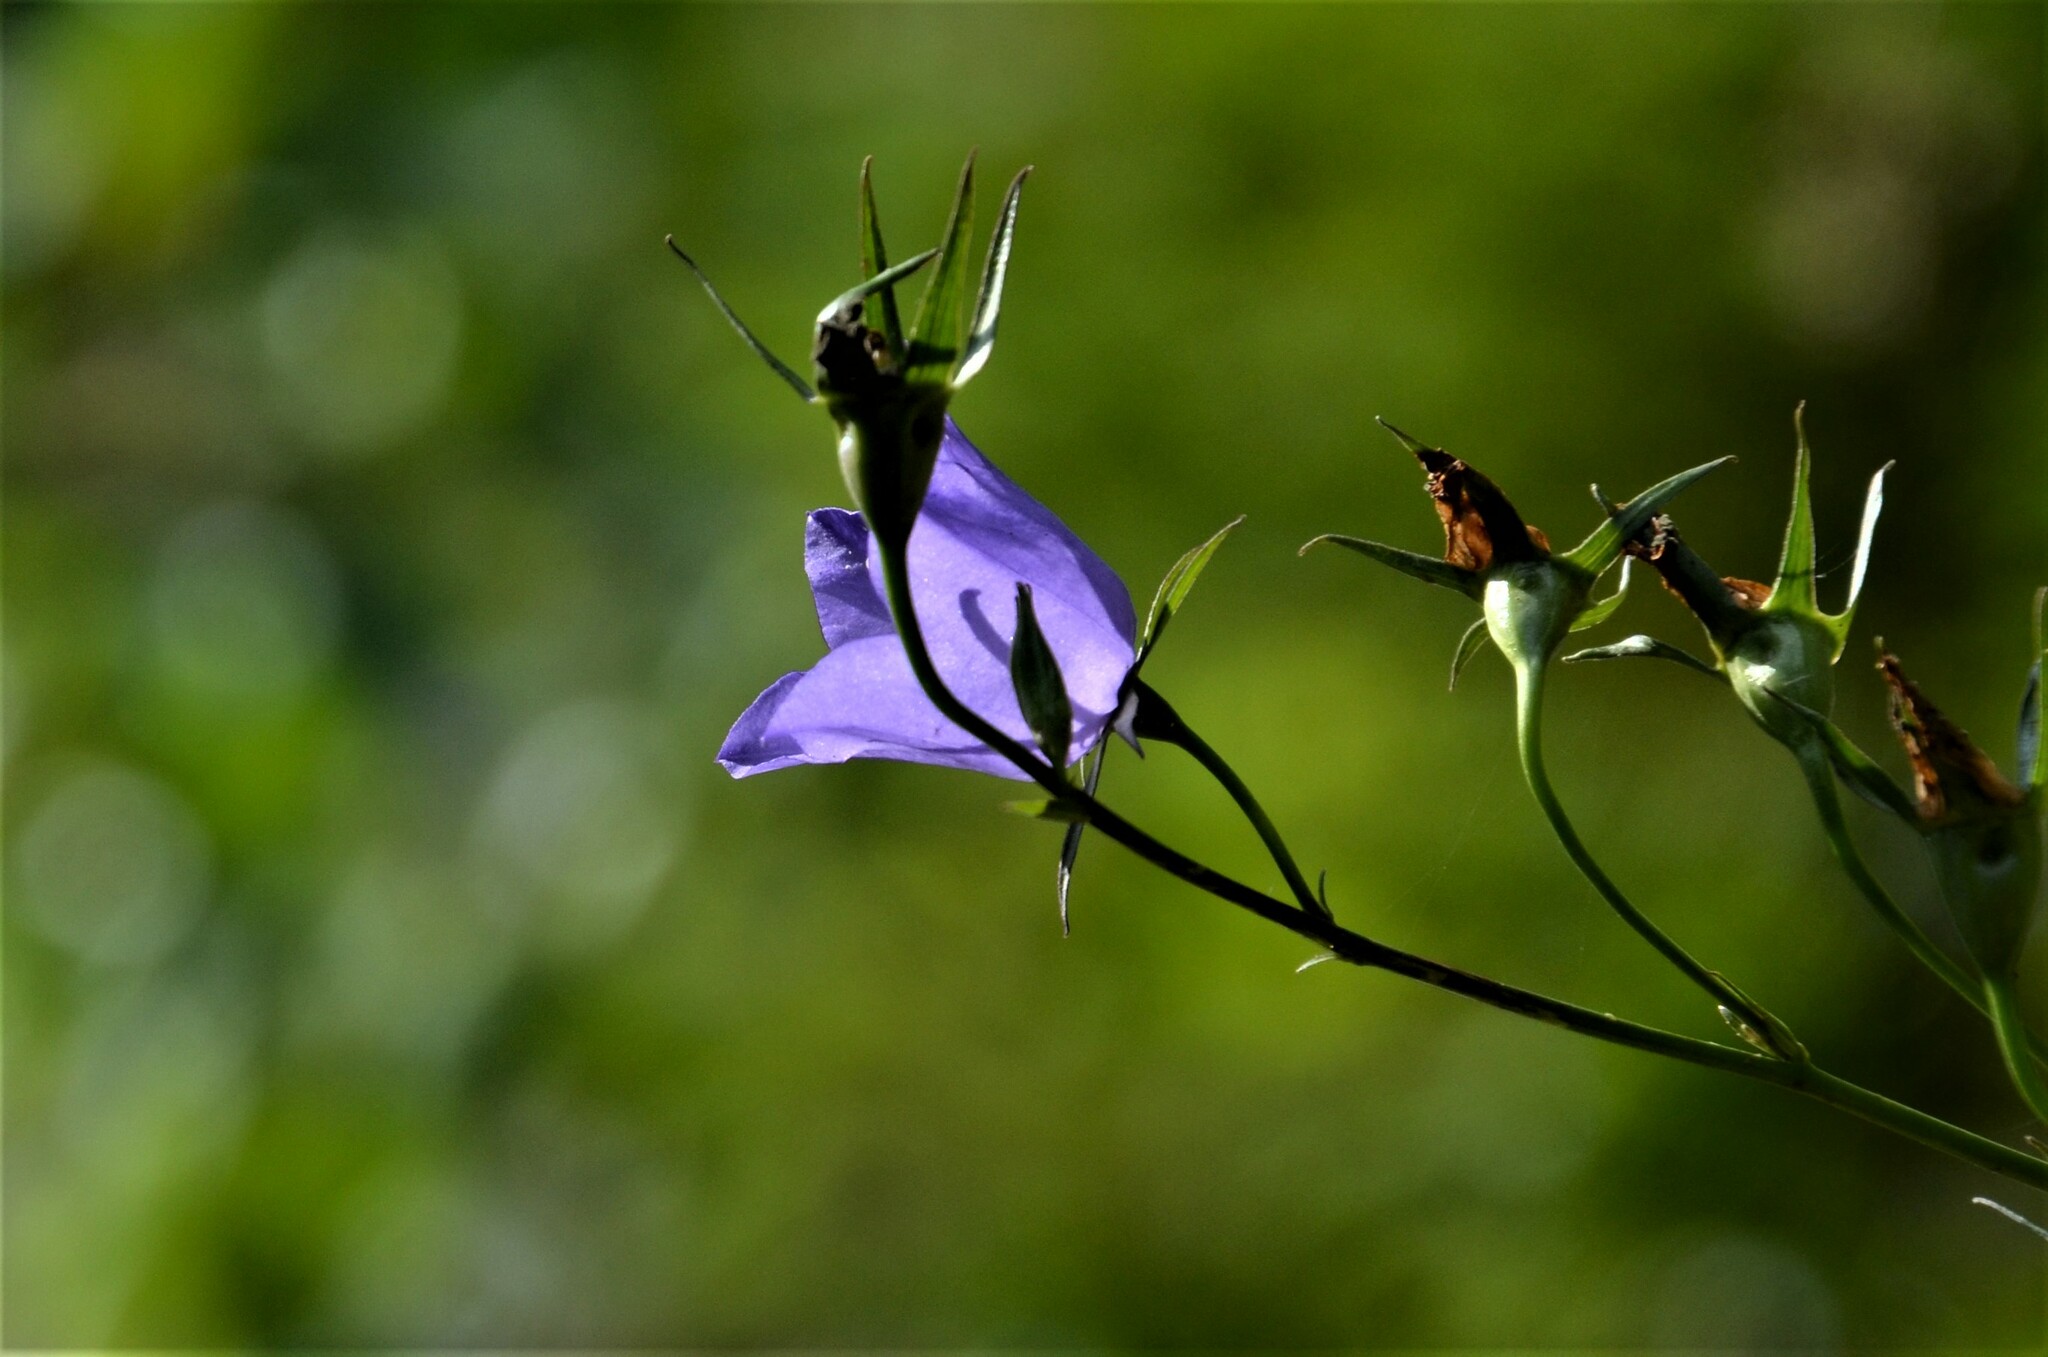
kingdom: Plantae
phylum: Tracheophyta
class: Magnoliopsida
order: Asterales
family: Campanulaceae
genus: Campanula
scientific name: Campanula persicifolia
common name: Peach-leaved bellflower
